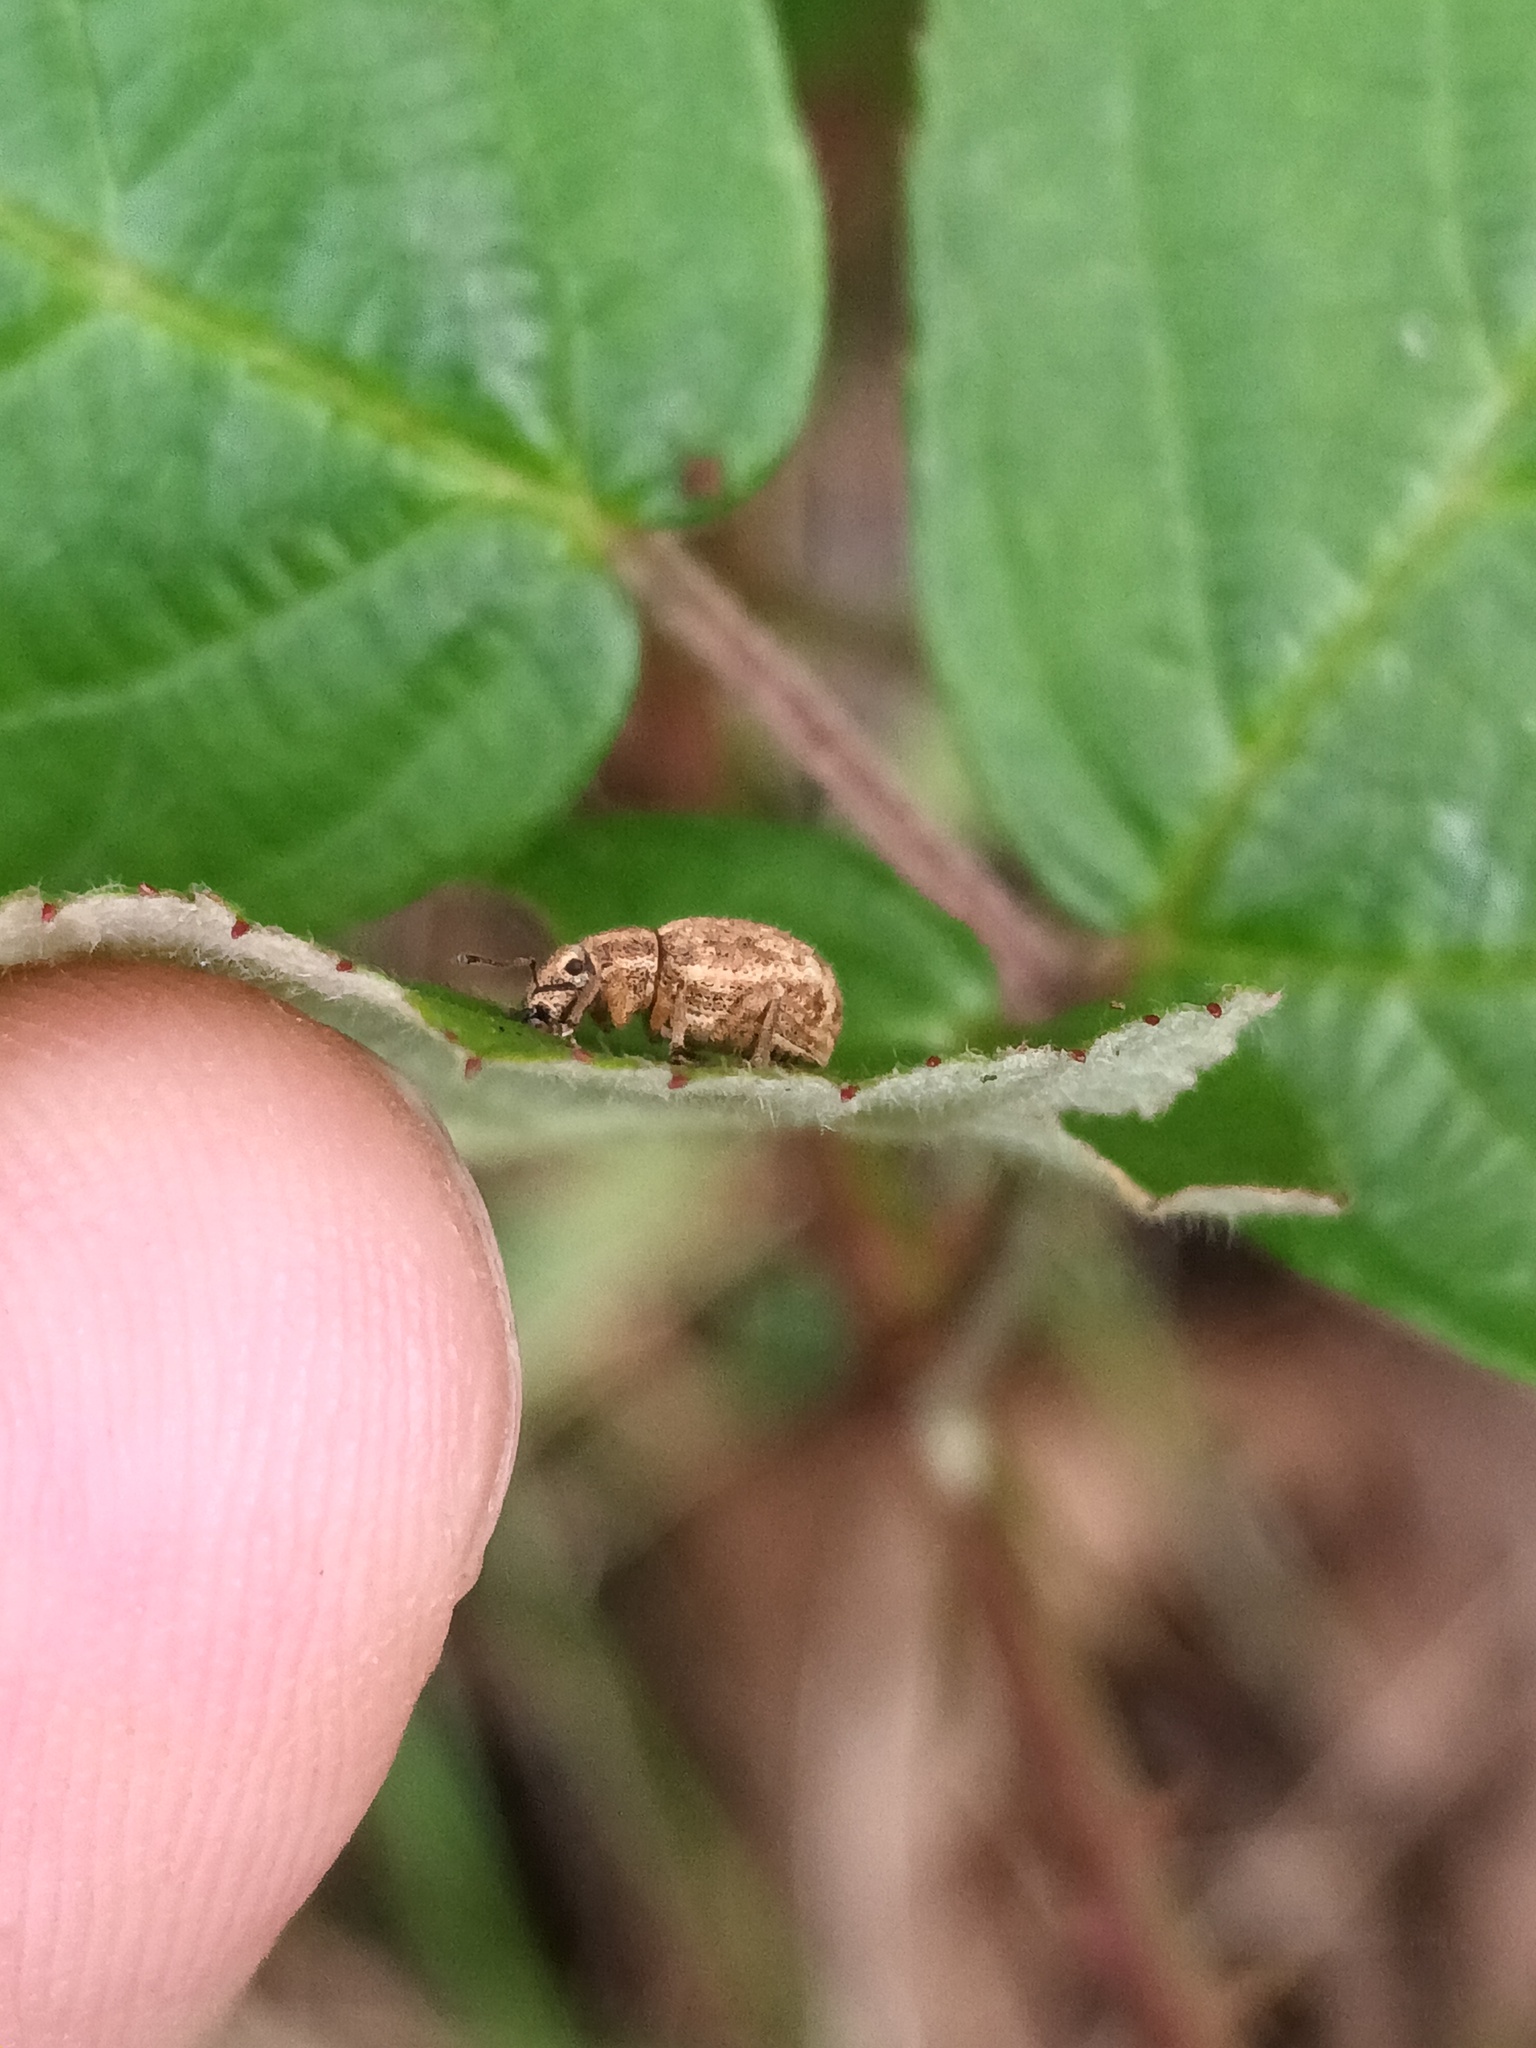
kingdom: Animalia
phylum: Arthropoda
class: Insecta
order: Coleoptera
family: Curculionidae
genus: Strophosoma
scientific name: Strophosoma melanogrammum
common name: Weevil
